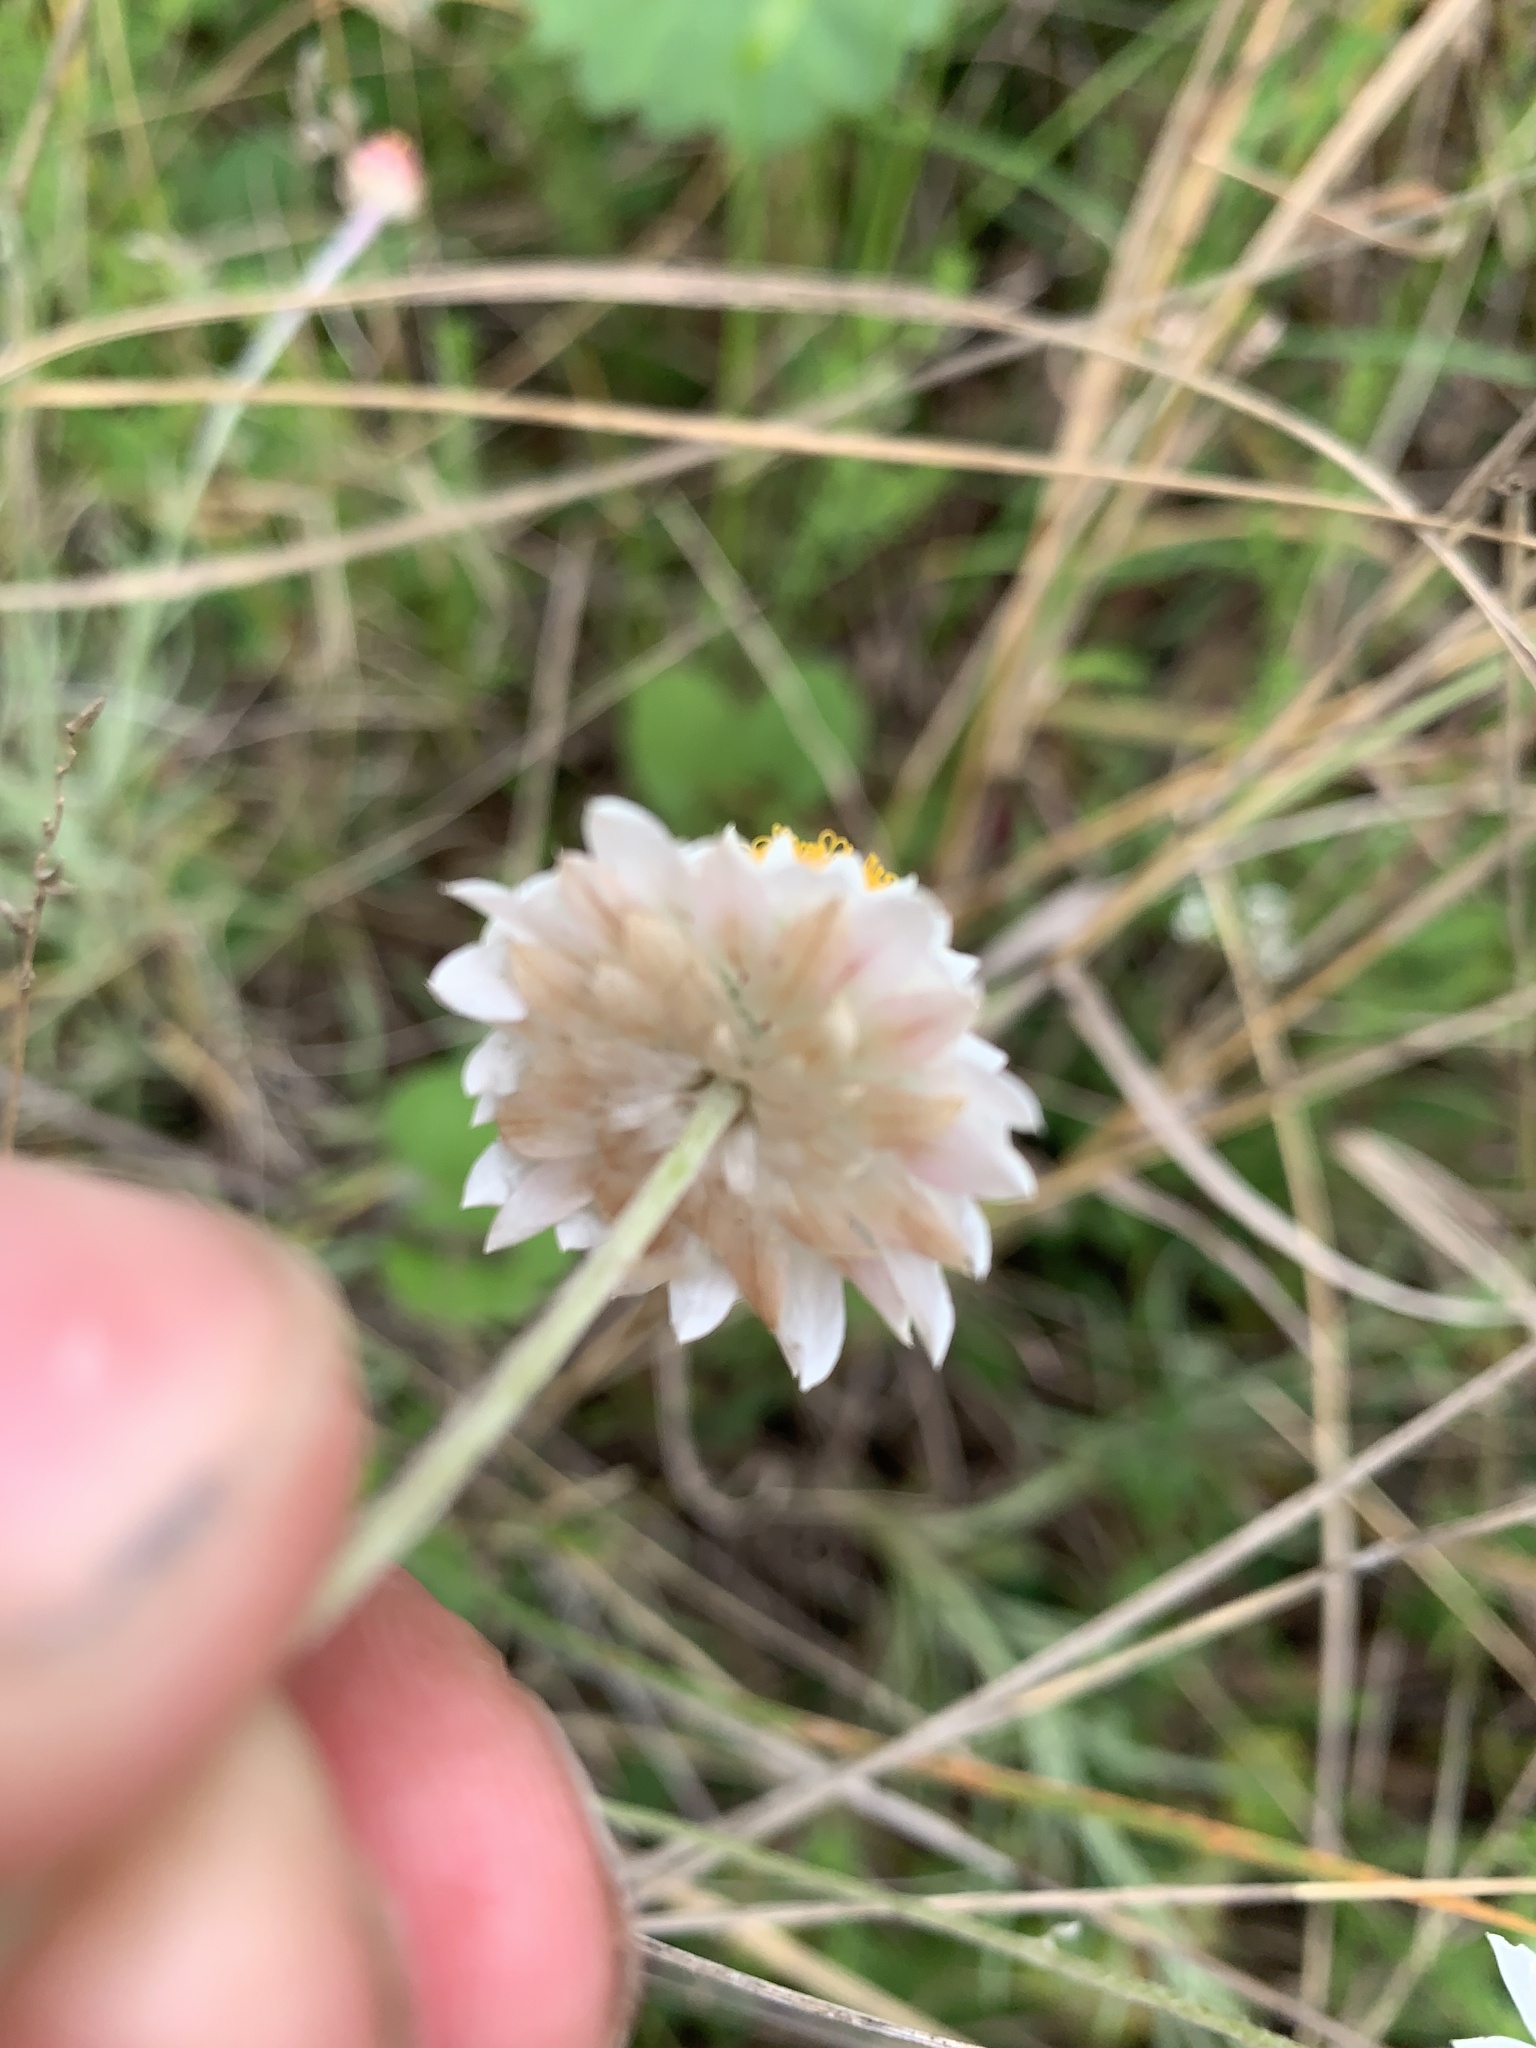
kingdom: Plantae
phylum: Tracheophyta
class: Magnoliopsida
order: Asterales
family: Asteraceae
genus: Leucochrysum
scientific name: Leucochrysum albicans
